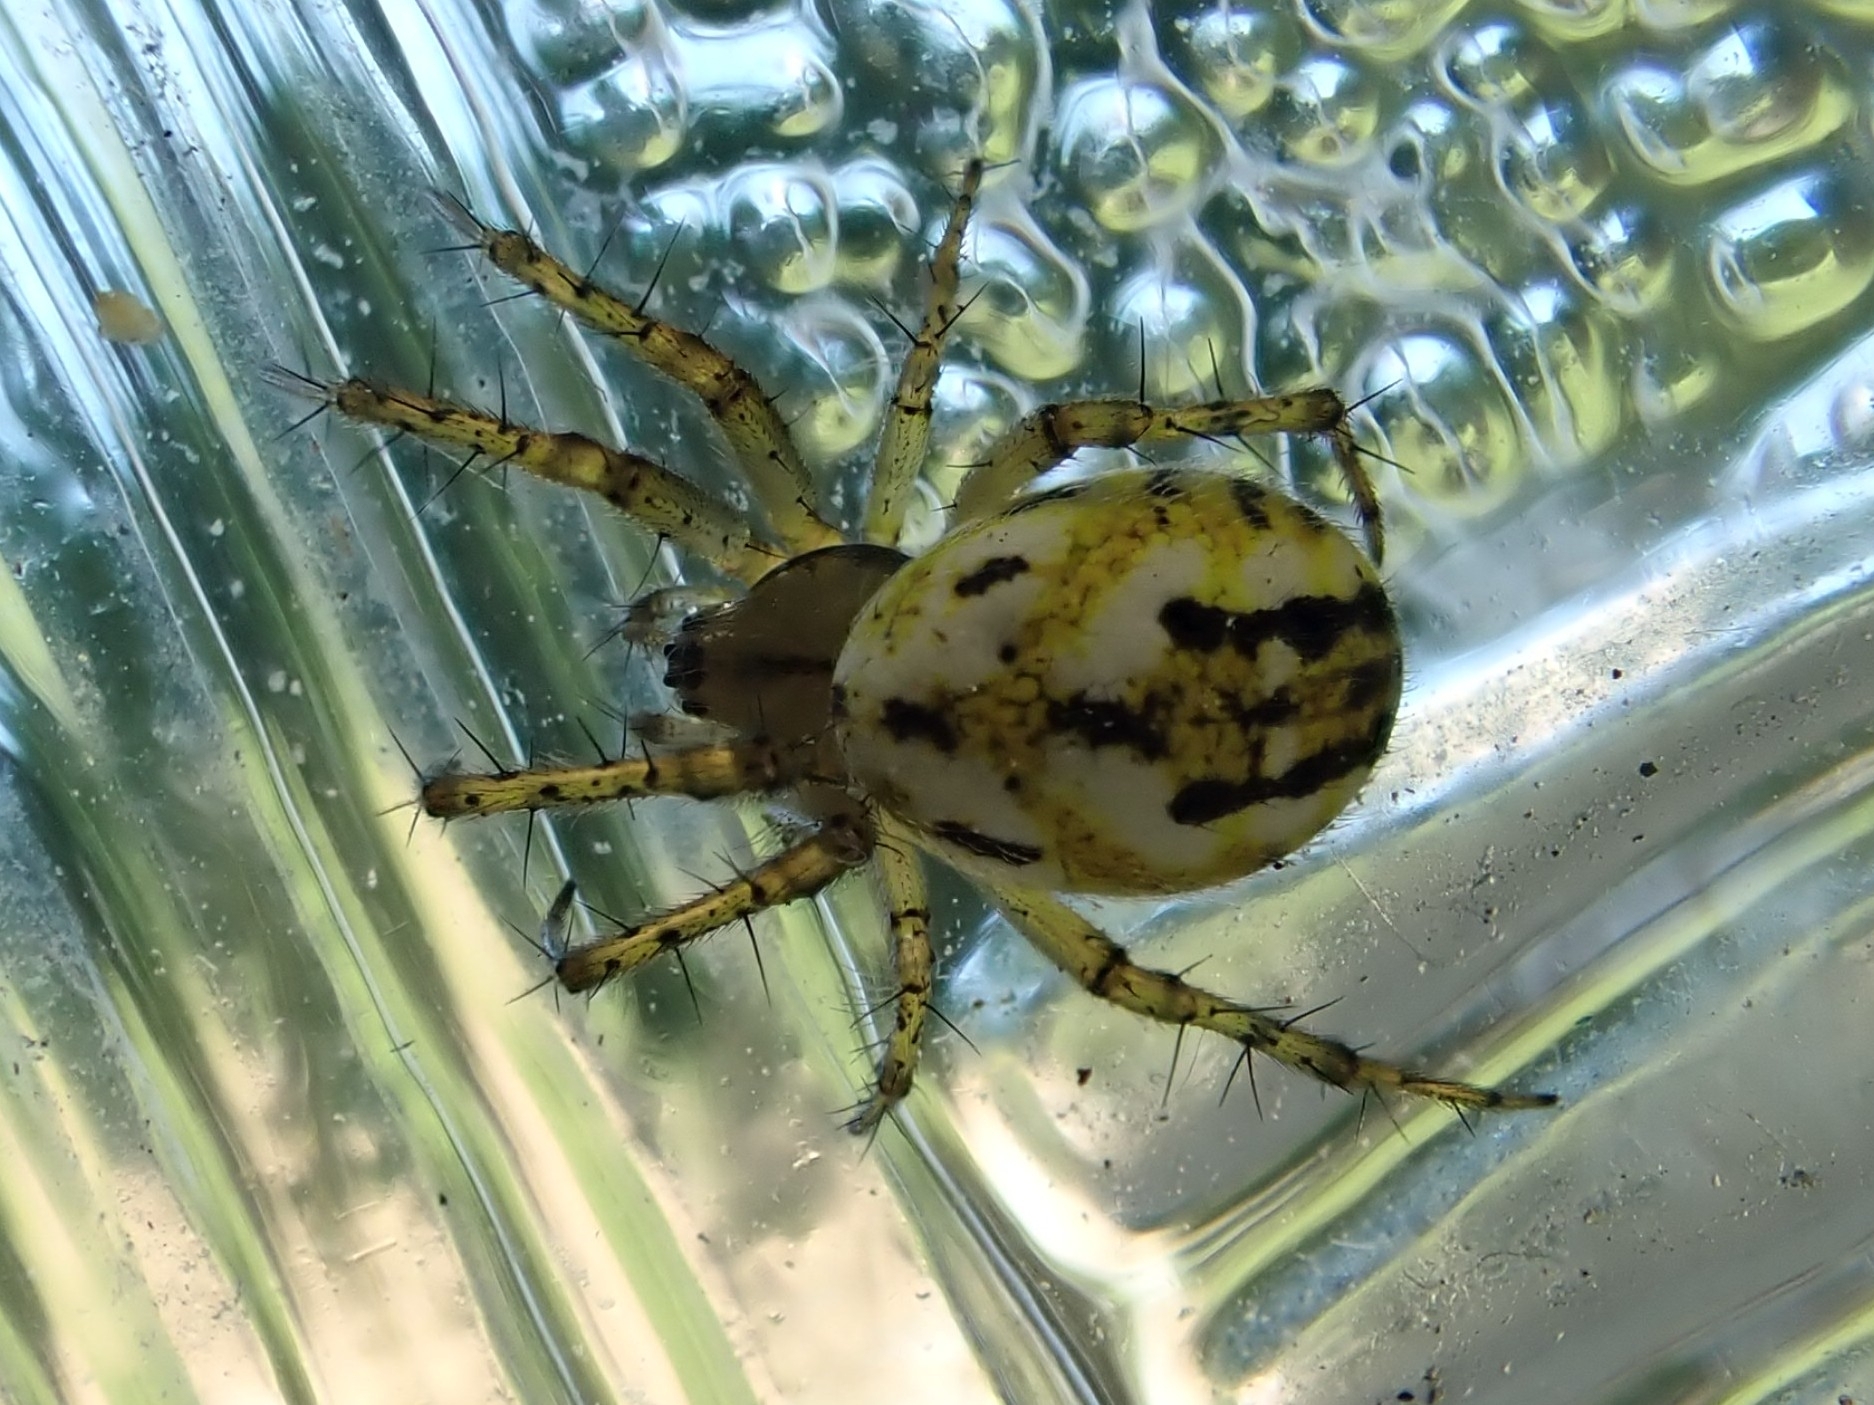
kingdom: Animalia
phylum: Arthropoda
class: Arachnida
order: Araneae
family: Araneidae
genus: Mangora
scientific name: Mangora acalypha
